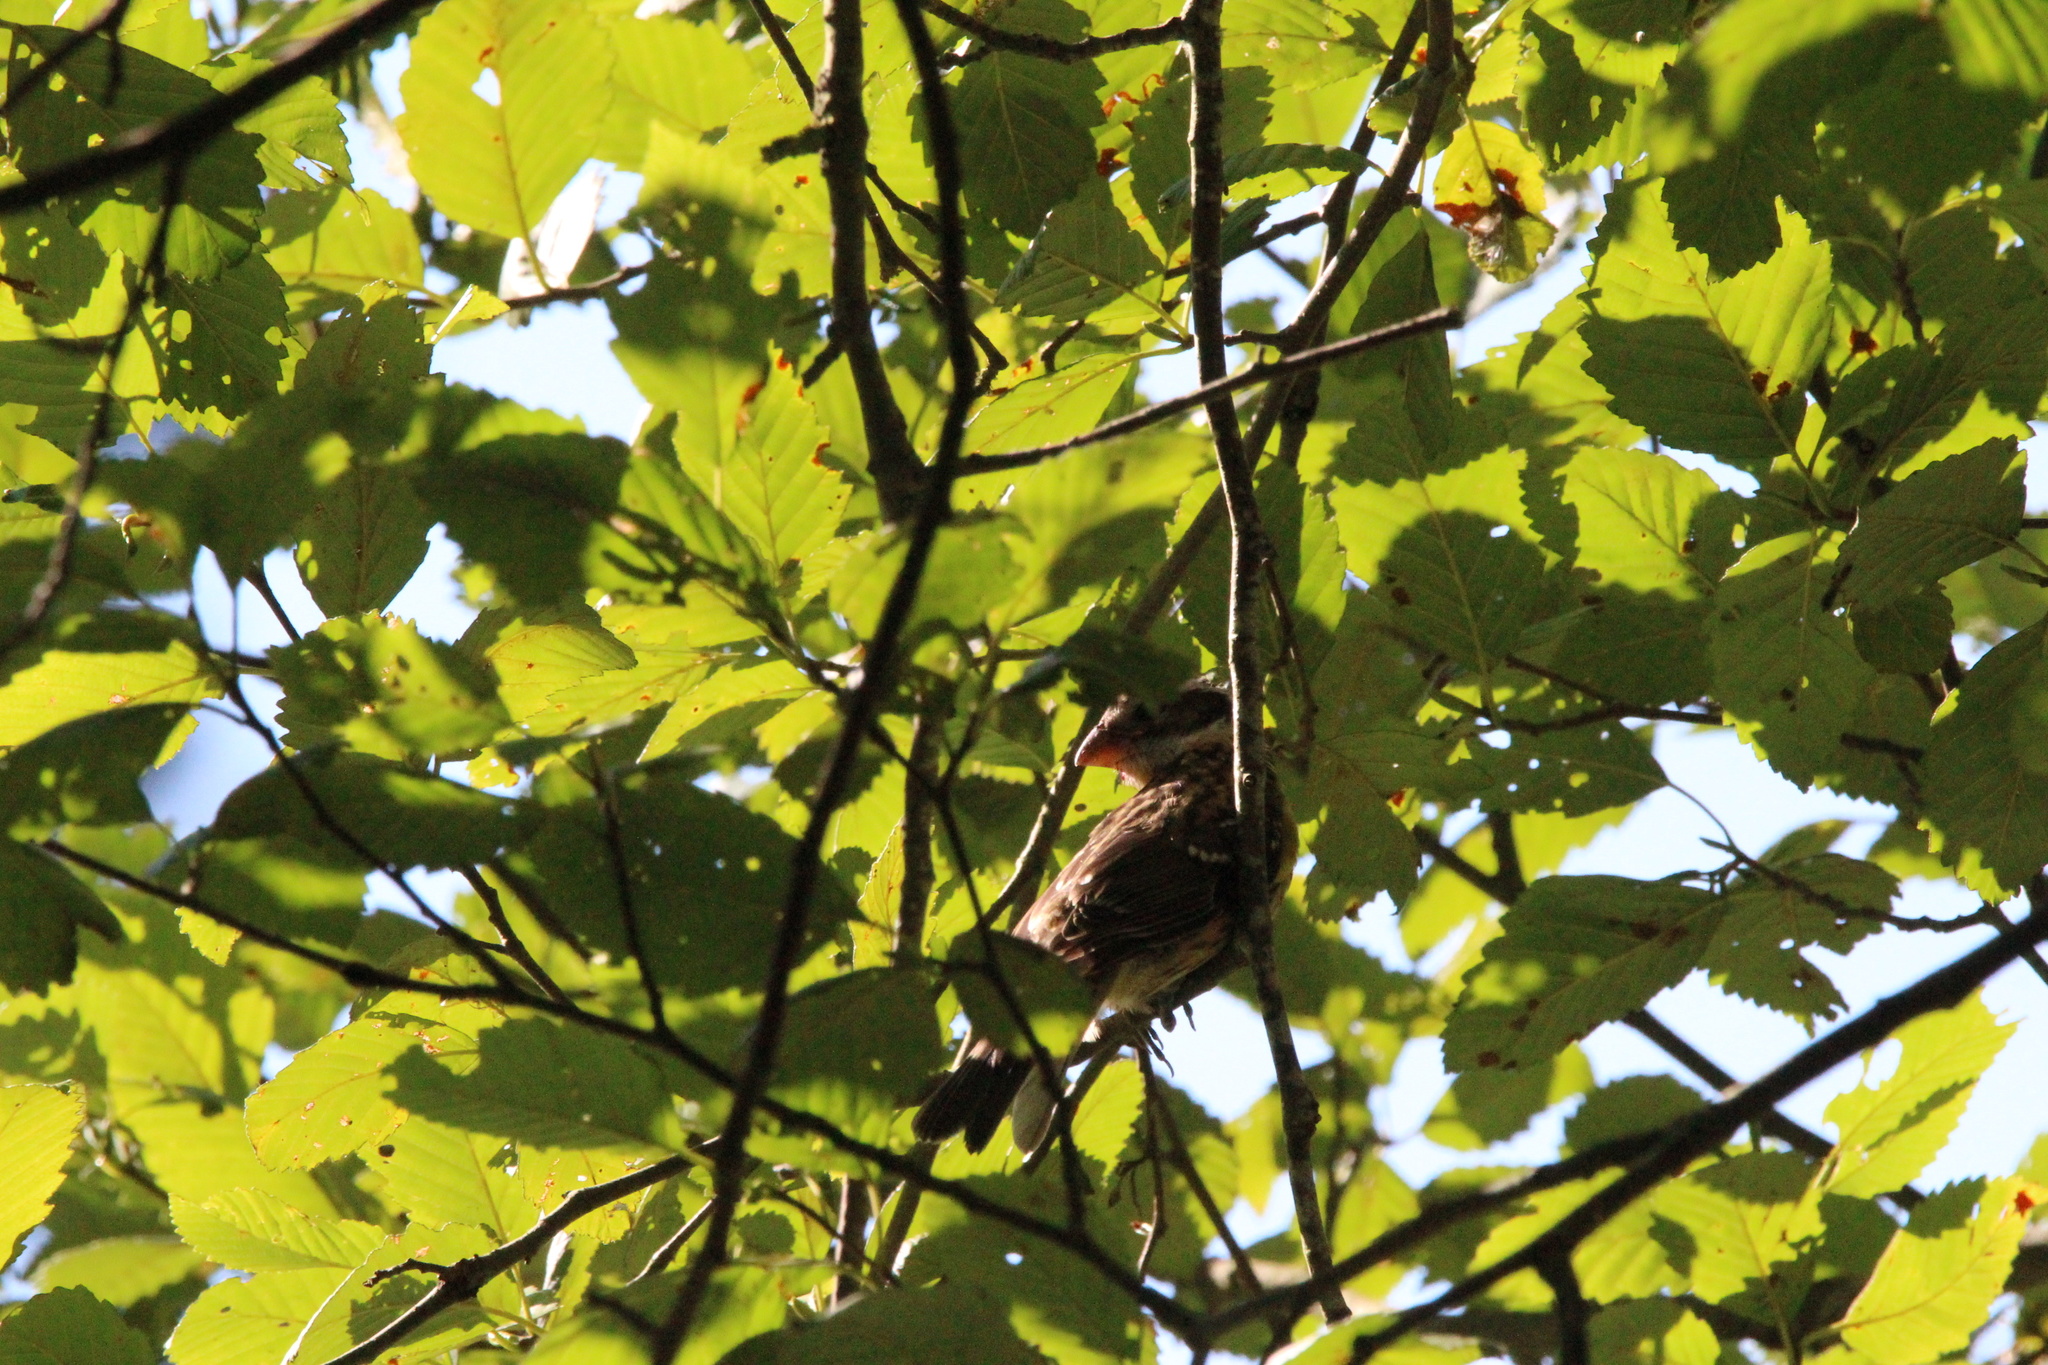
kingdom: Animalia
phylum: Chordata
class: Aves
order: Passeriformes
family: Cardinalidae
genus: Pheucticus
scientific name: Pheucticus melanocephalus
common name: Black-headed grosbeak
